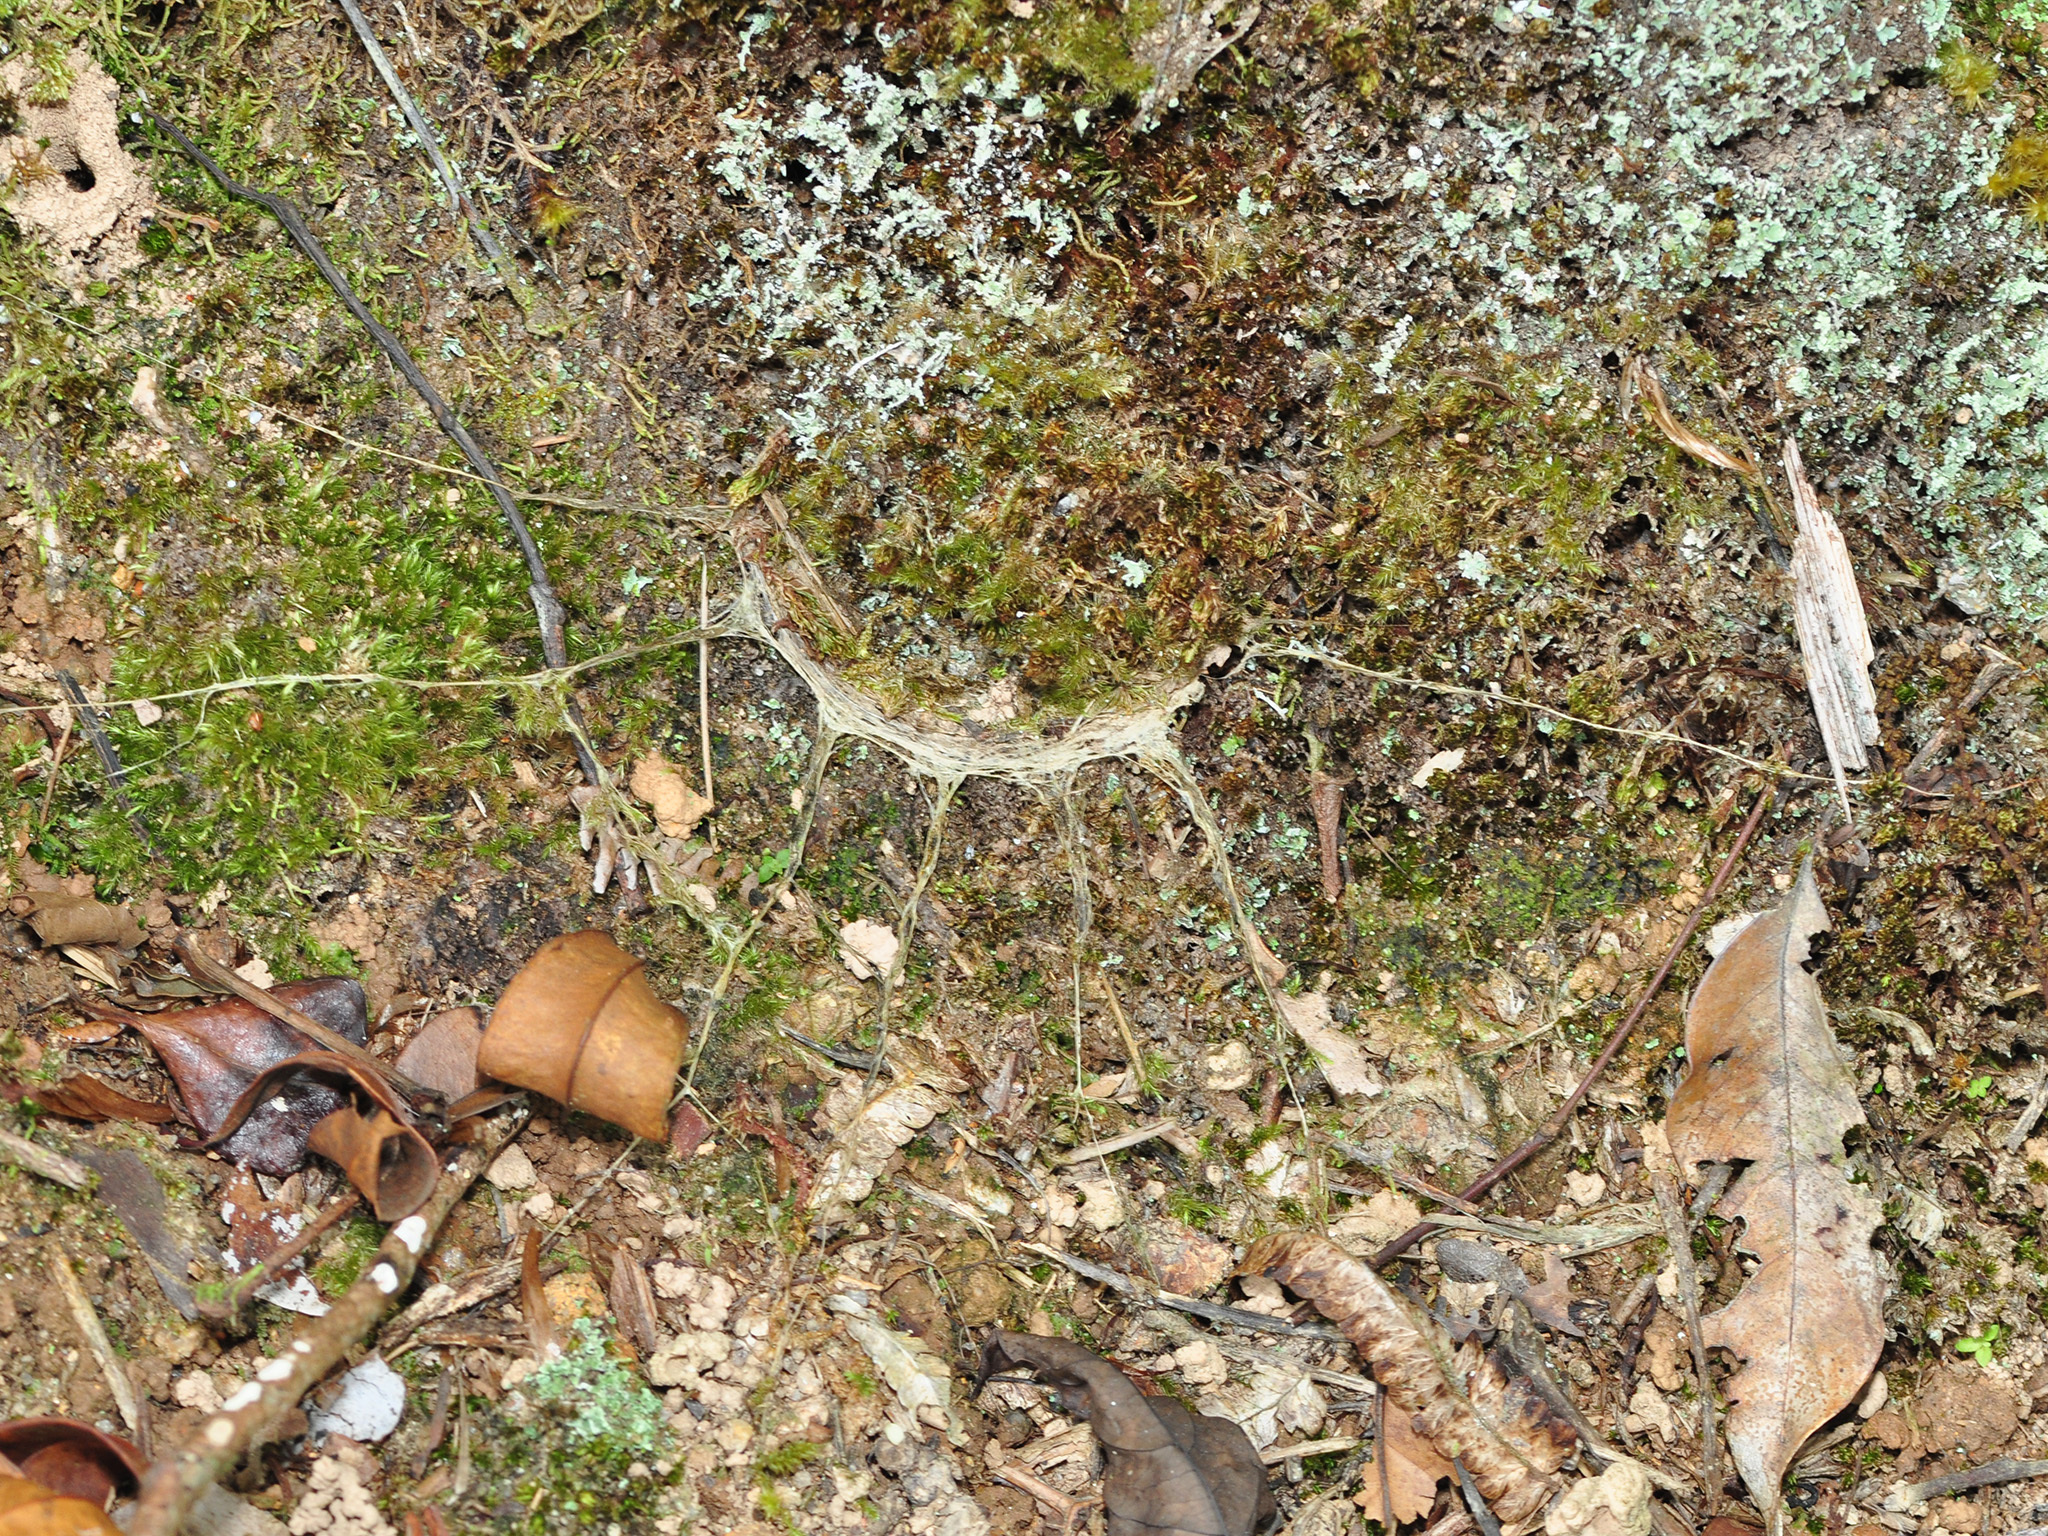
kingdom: Animalia
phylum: Arthropoda
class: Arachnida
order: Araneae
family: Liphistiidae
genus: Liphistius
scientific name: Liphistius malayanus
